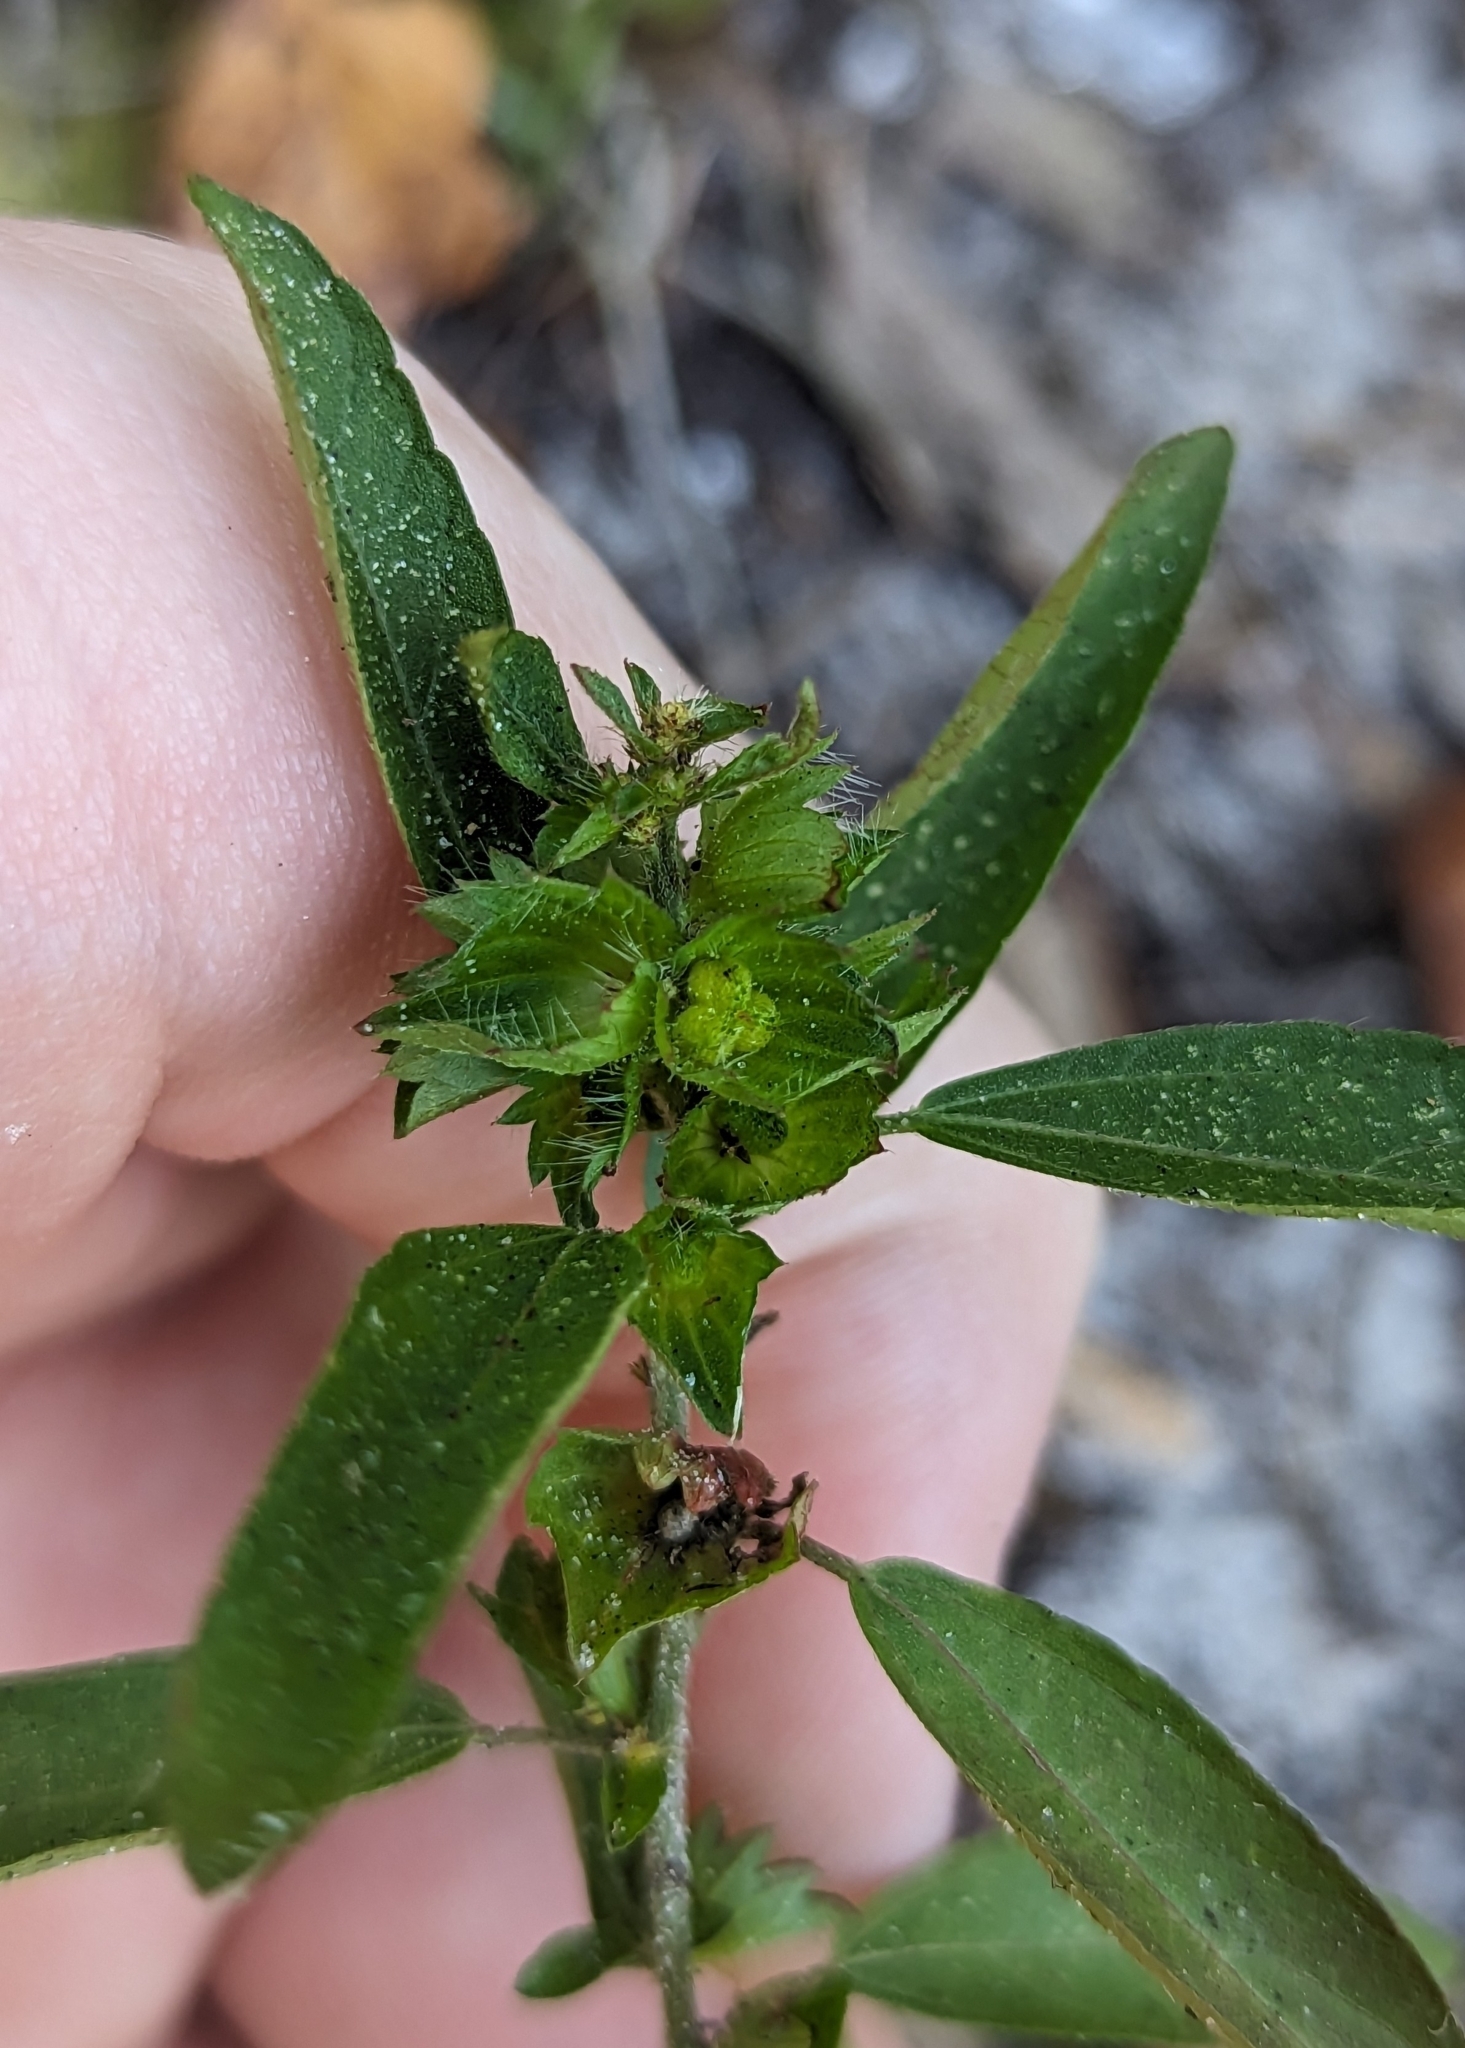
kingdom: Plantae
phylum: Tracheophyta
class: Magnoliopsida
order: Malpighiales
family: Euphorbiaceae
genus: Acalypha
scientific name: Acalypha gracilens
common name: Slender three-seeded mercury
